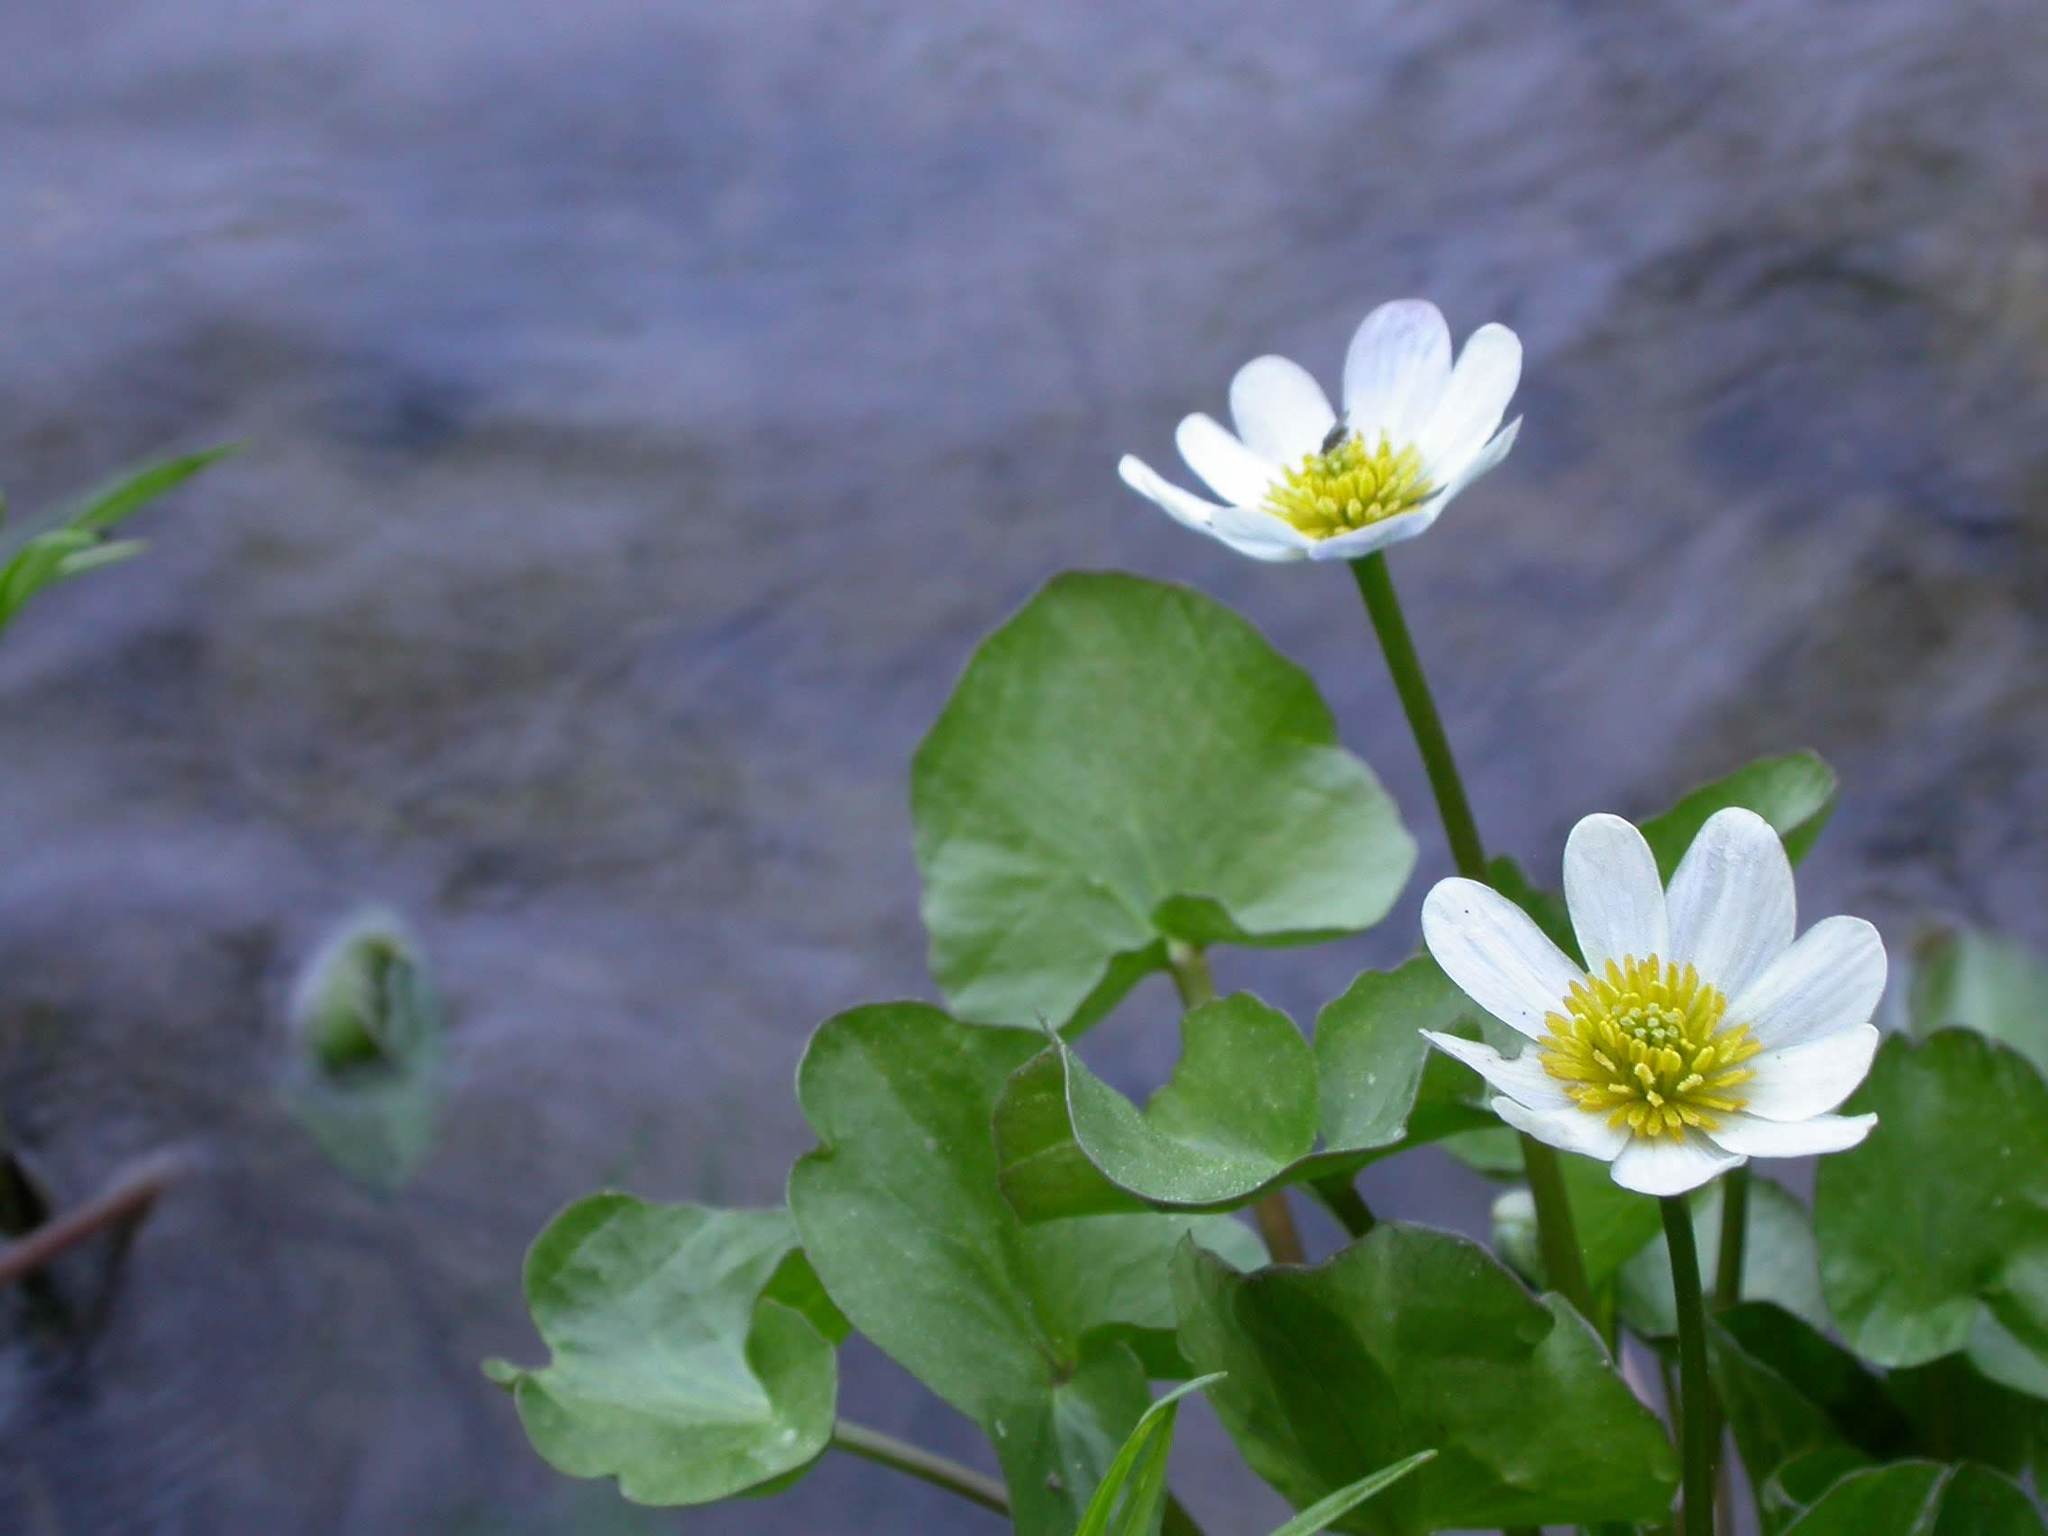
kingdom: Plantae
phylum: Tracheophyta
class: Magnoliopsida
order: Ranunculales
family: Ranunculaceae
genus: Caltha
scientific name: Caltha leptosepala
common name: Elkslip
